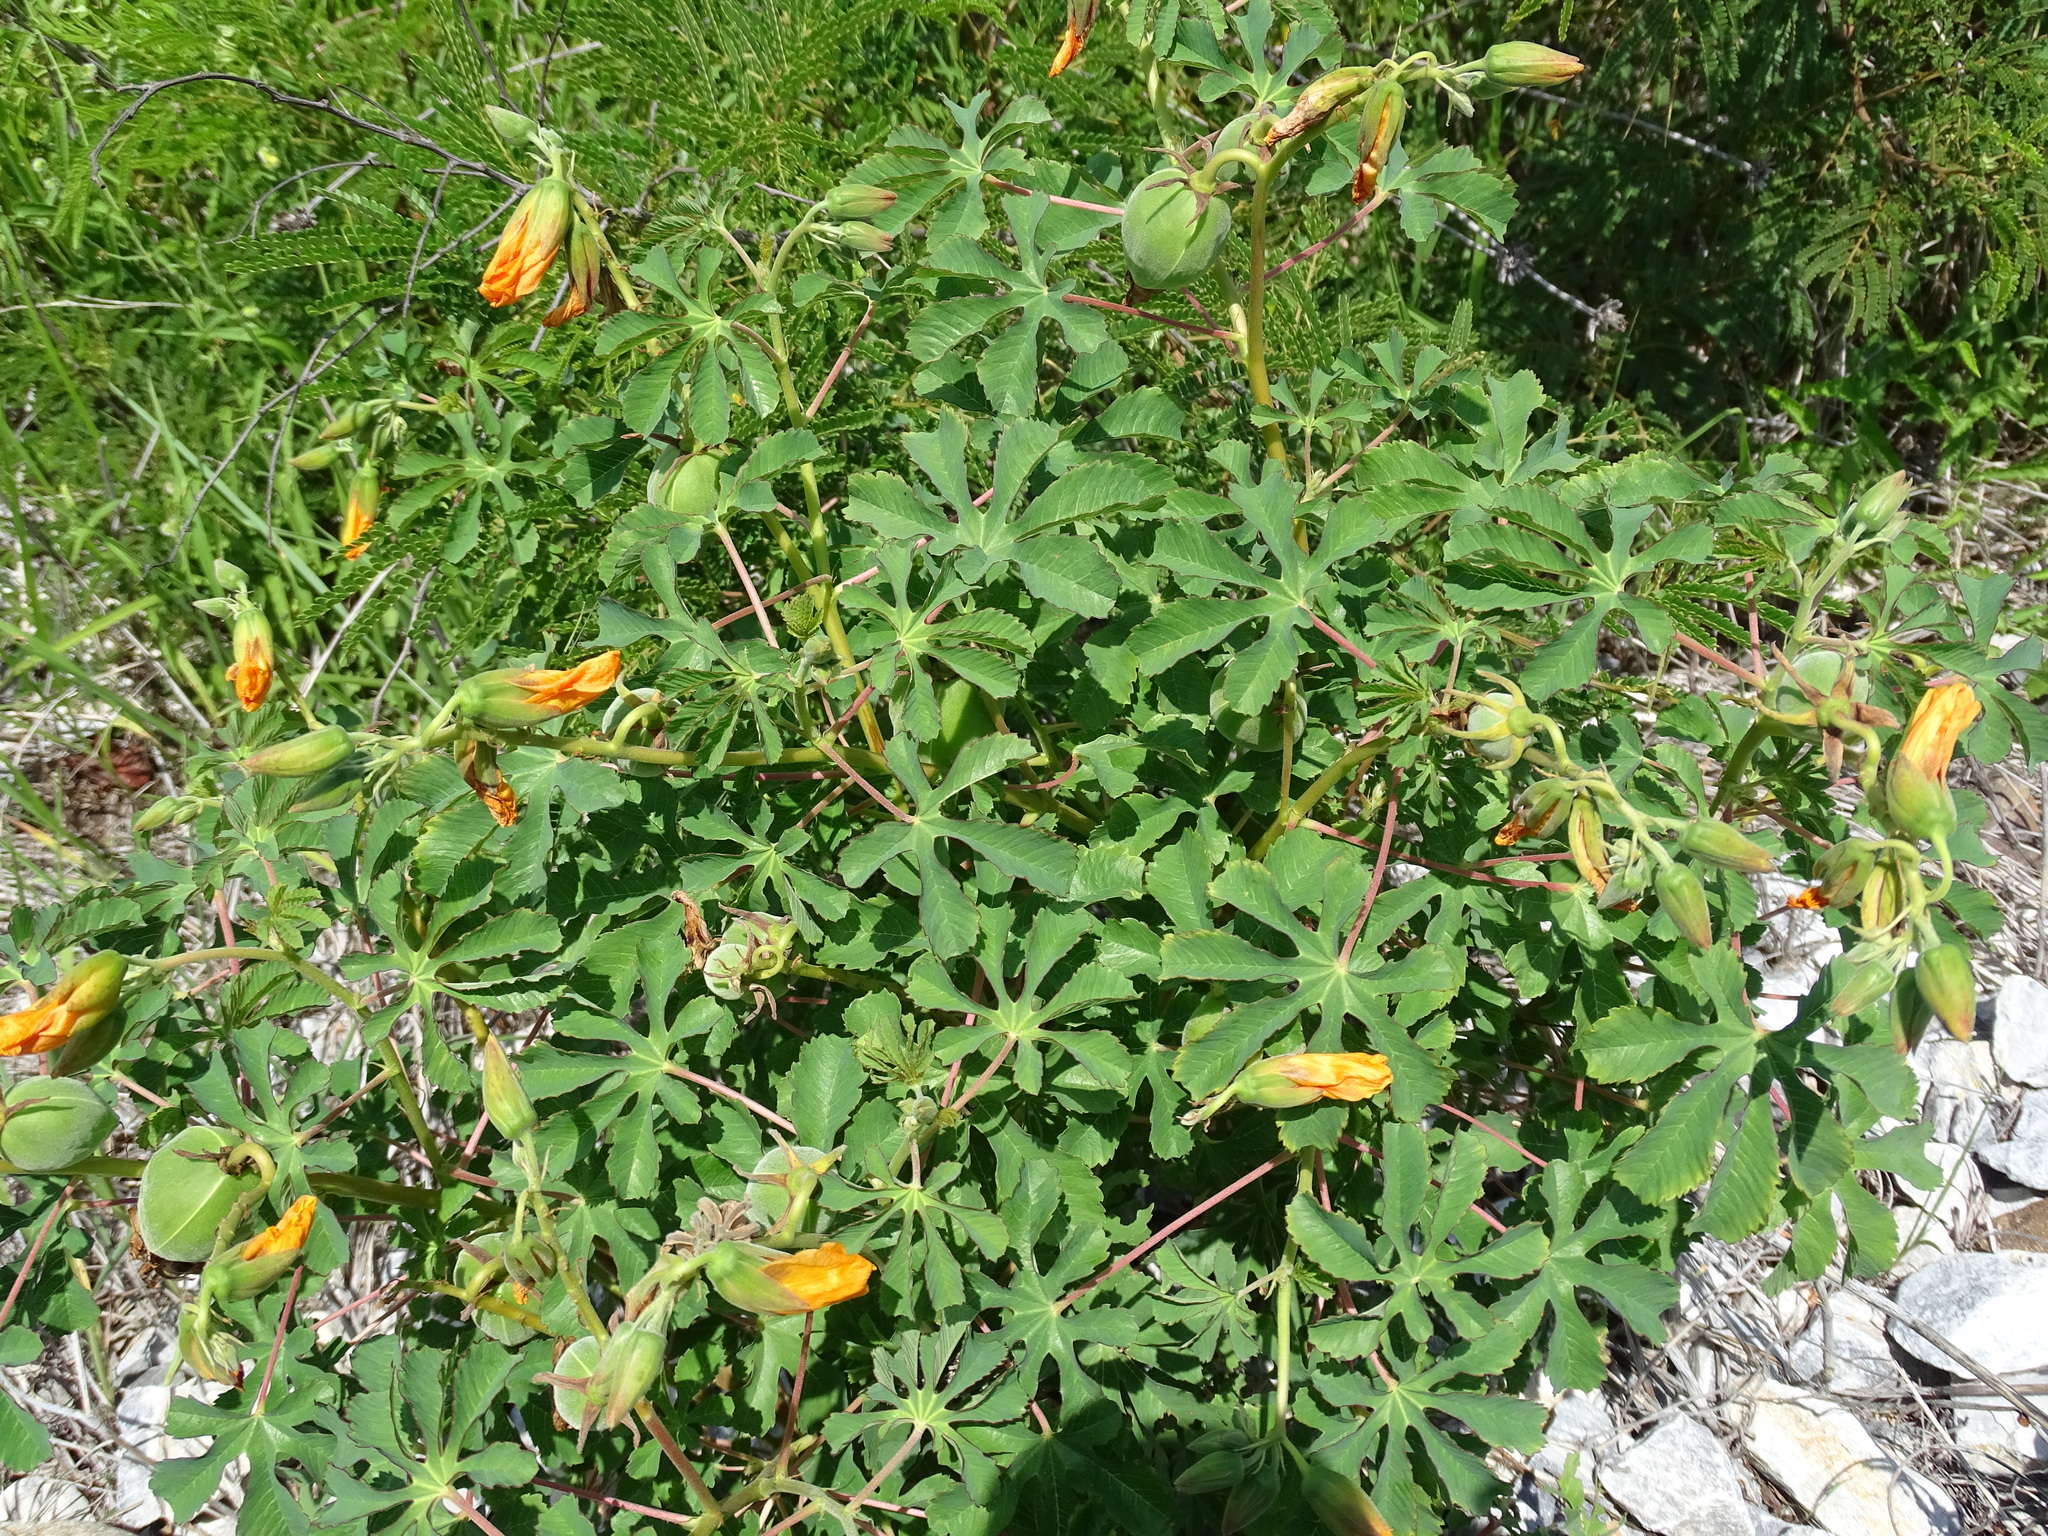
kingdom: Plantae
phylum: Tracheophyta
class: Magnoliopsida
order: Malvales
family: Cochlospermaceae
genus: Cochlospermum
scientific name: Cochlospermum wrightii
